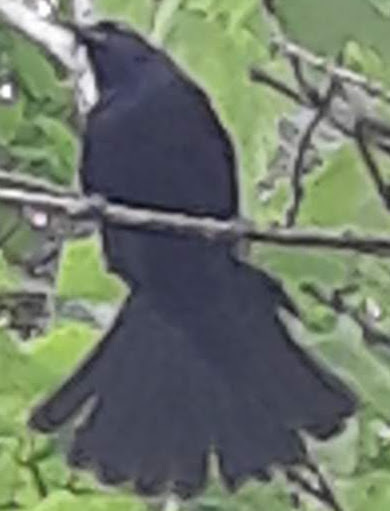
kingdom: Animalia
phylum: Chordata
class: Aves
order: Passeriformes
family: Icteridae
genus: Agelaius
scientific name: Agelaius phoeniceus
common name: Red-winged blackbird
